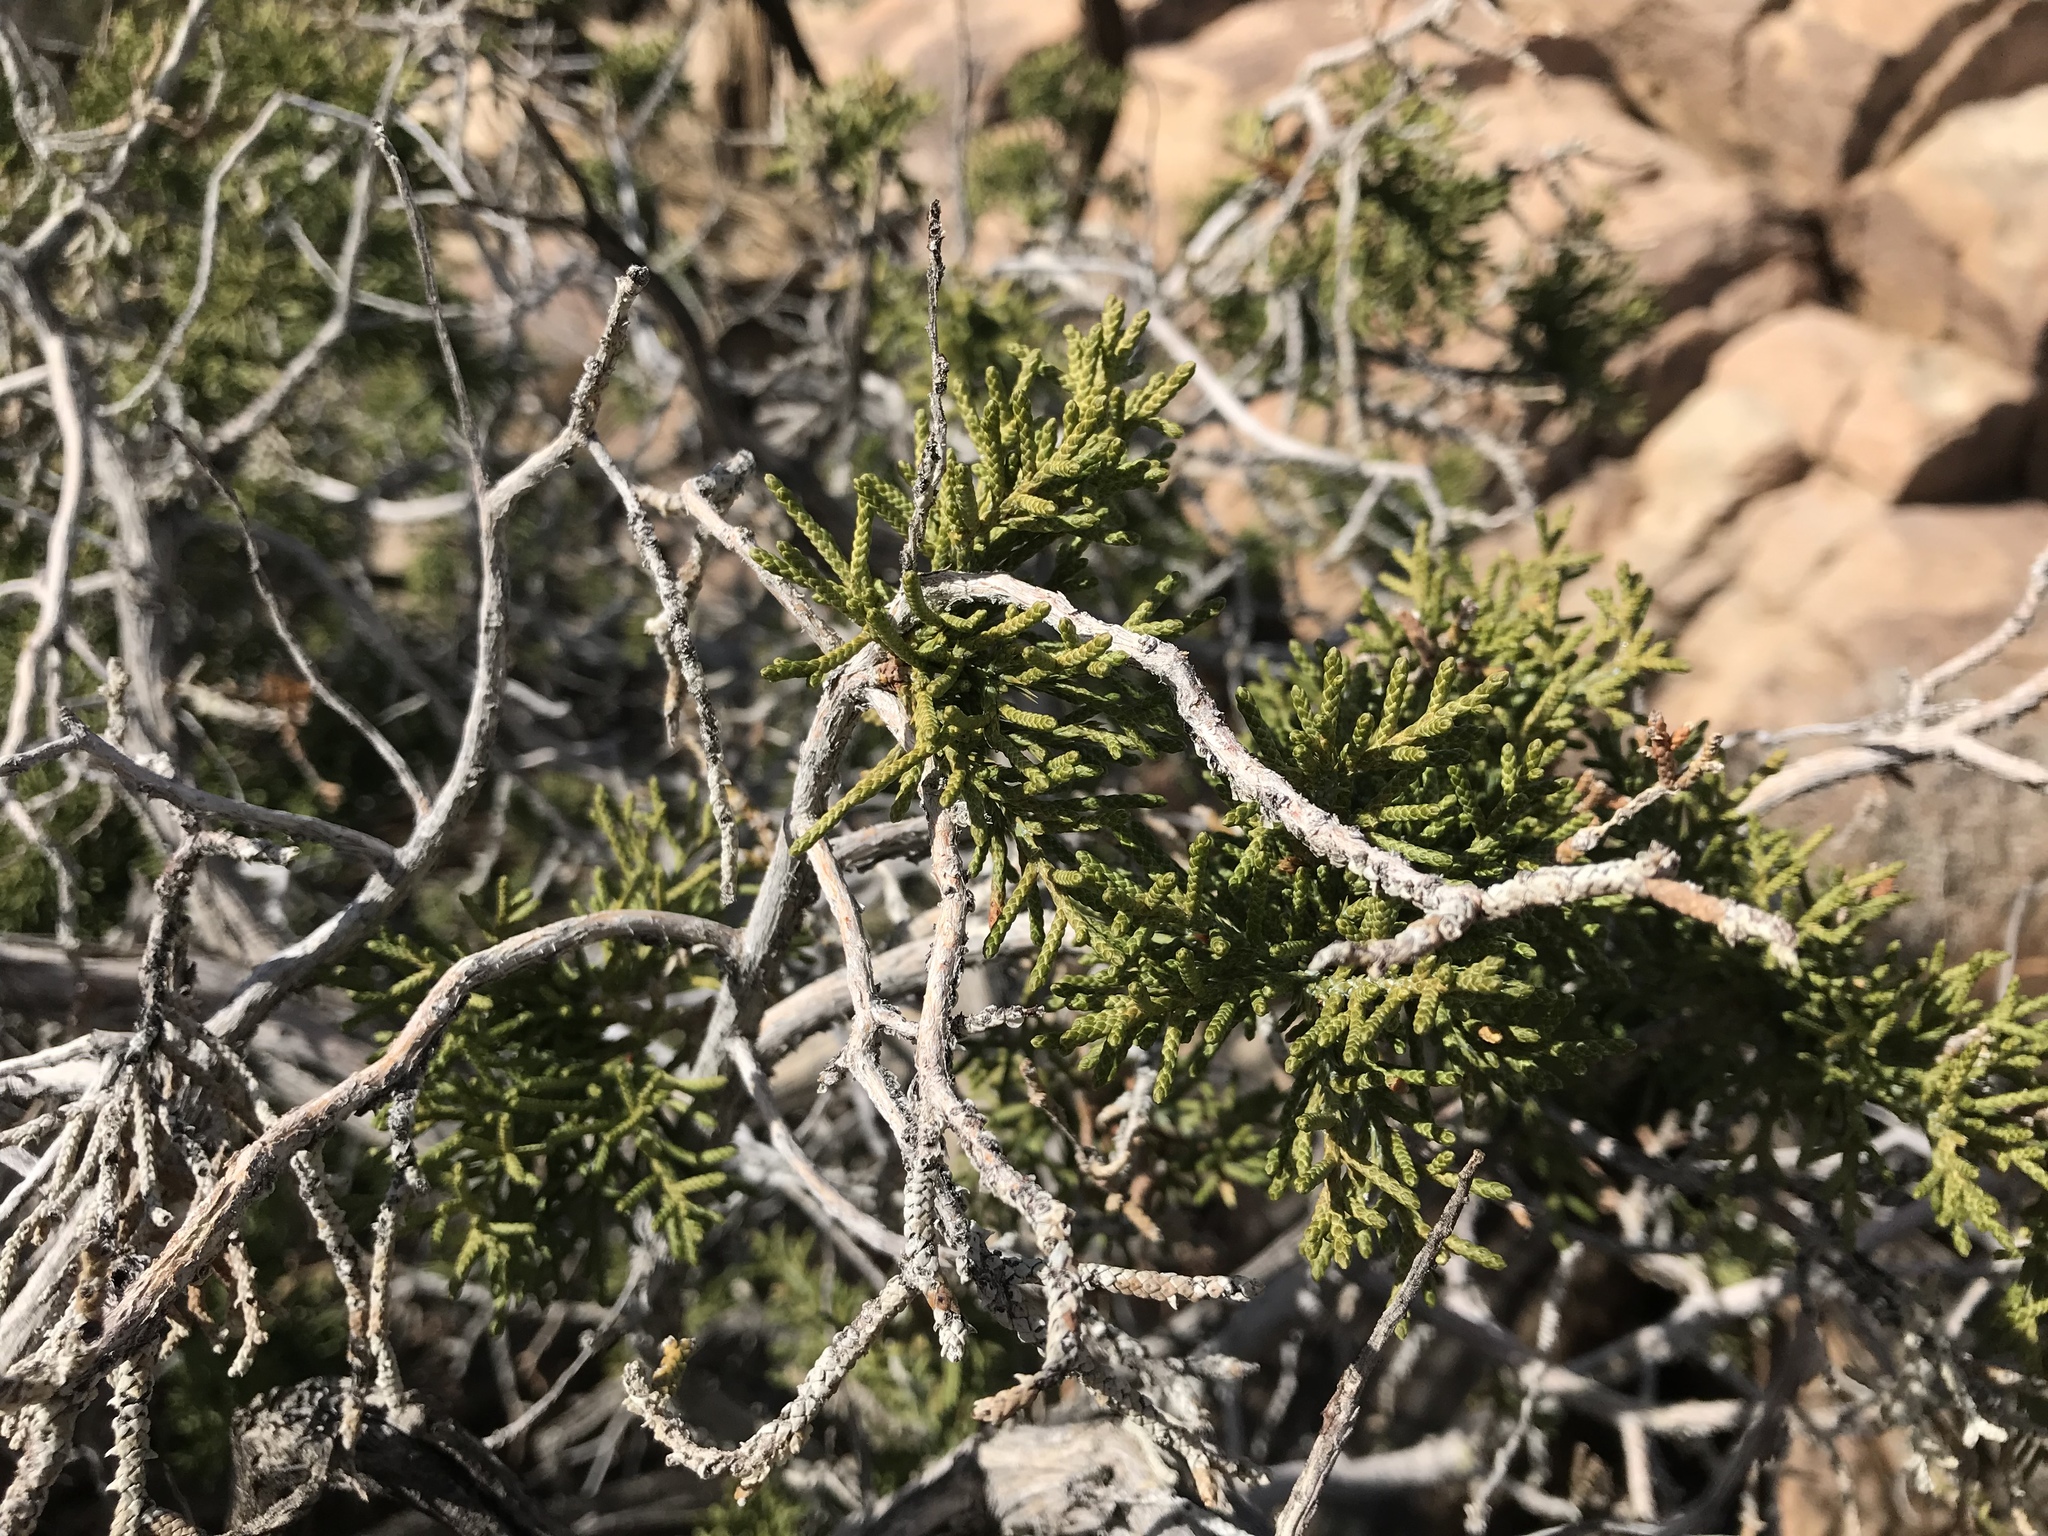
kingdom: Plantae
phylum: Tracheophyta
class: Pinopsida
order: Pinales
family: Cupressaceae
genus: Juniperus
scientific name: Juniperus californica
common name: California juniper
